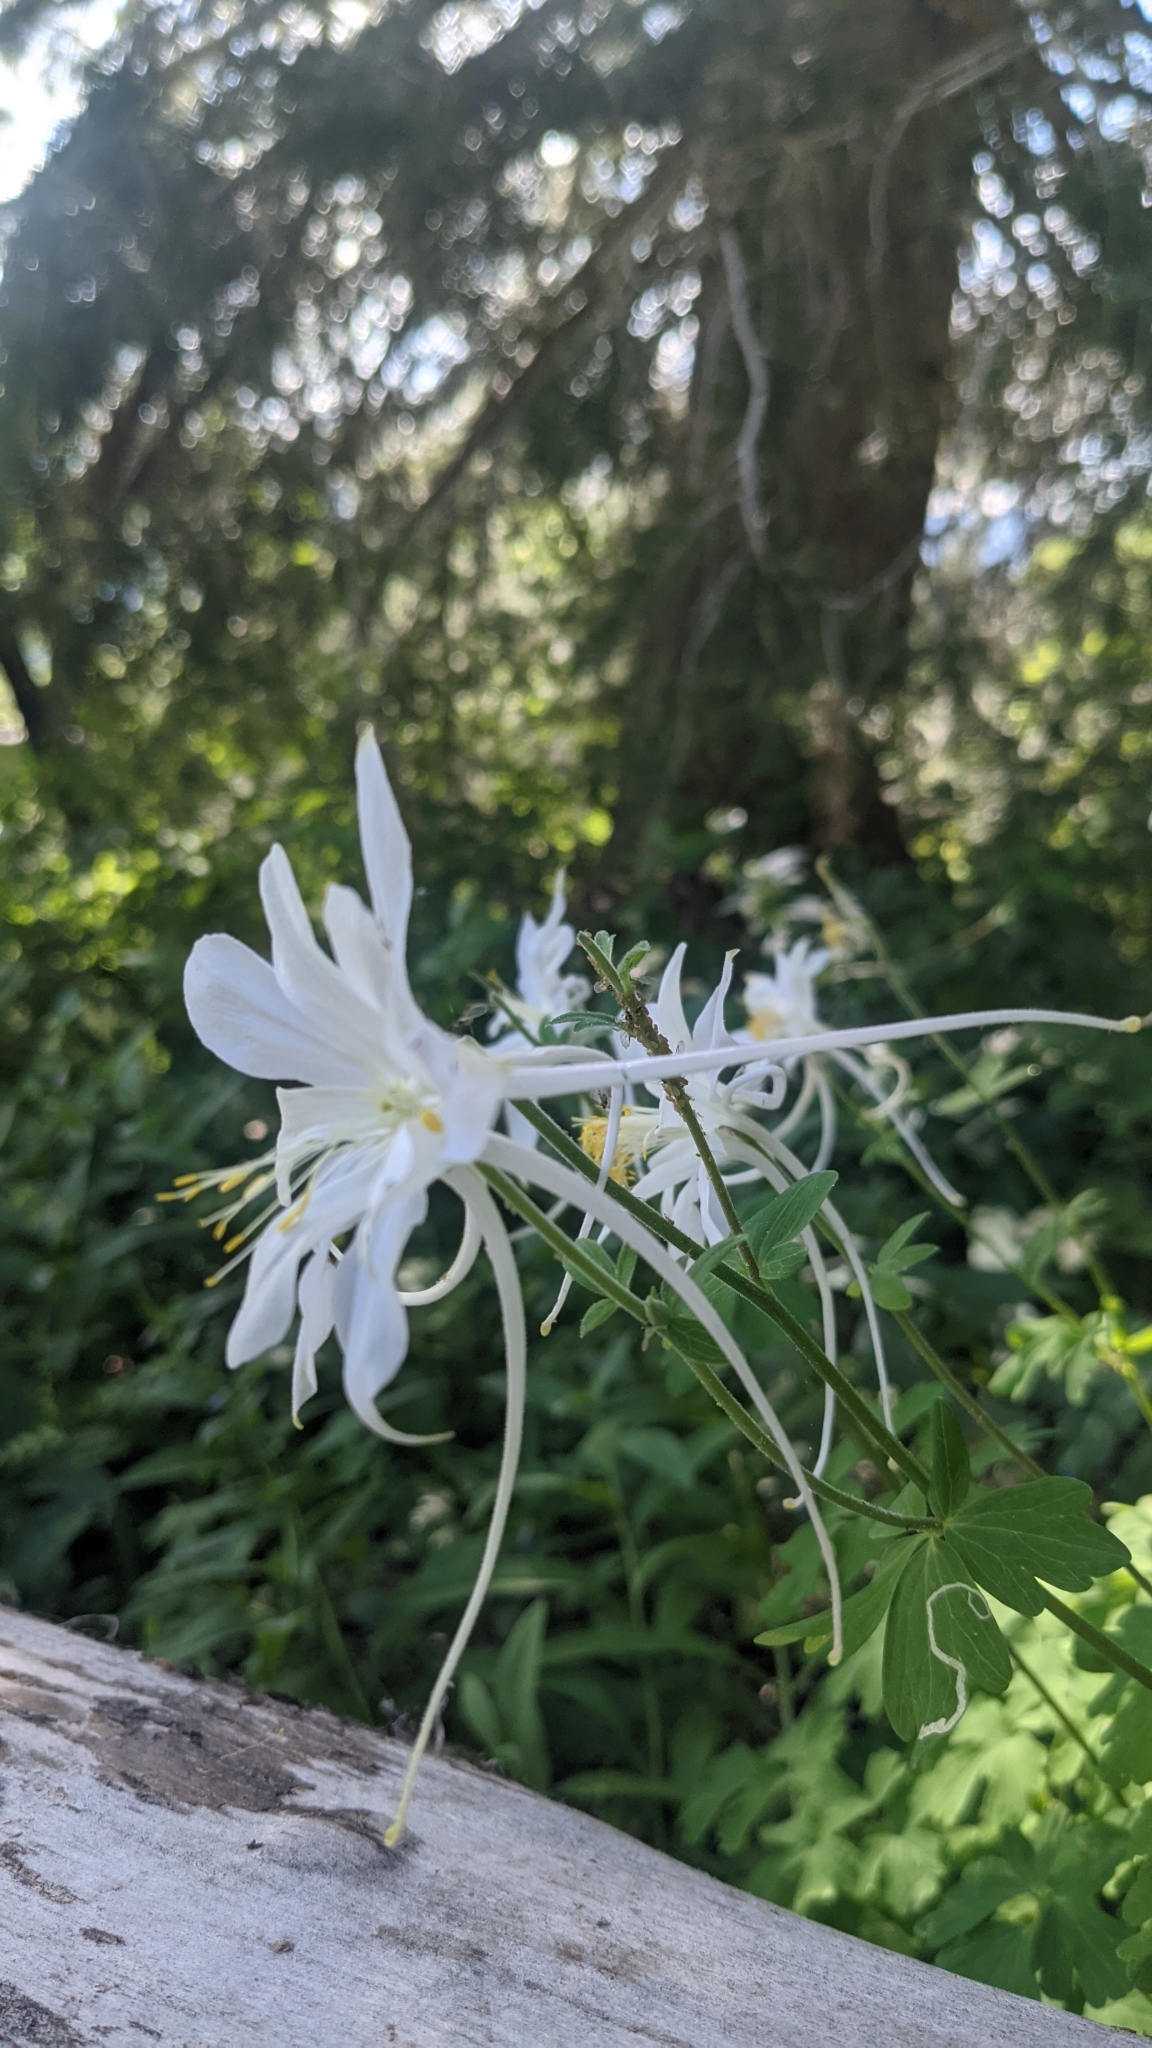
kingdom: Plantae
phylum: Tracheophyta
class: Magnoliopsida
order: Ranunculales
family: Ranunculaceae
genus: Aquilegia
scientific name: Aquilegia coerulea
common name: Rocky mountain columbine
